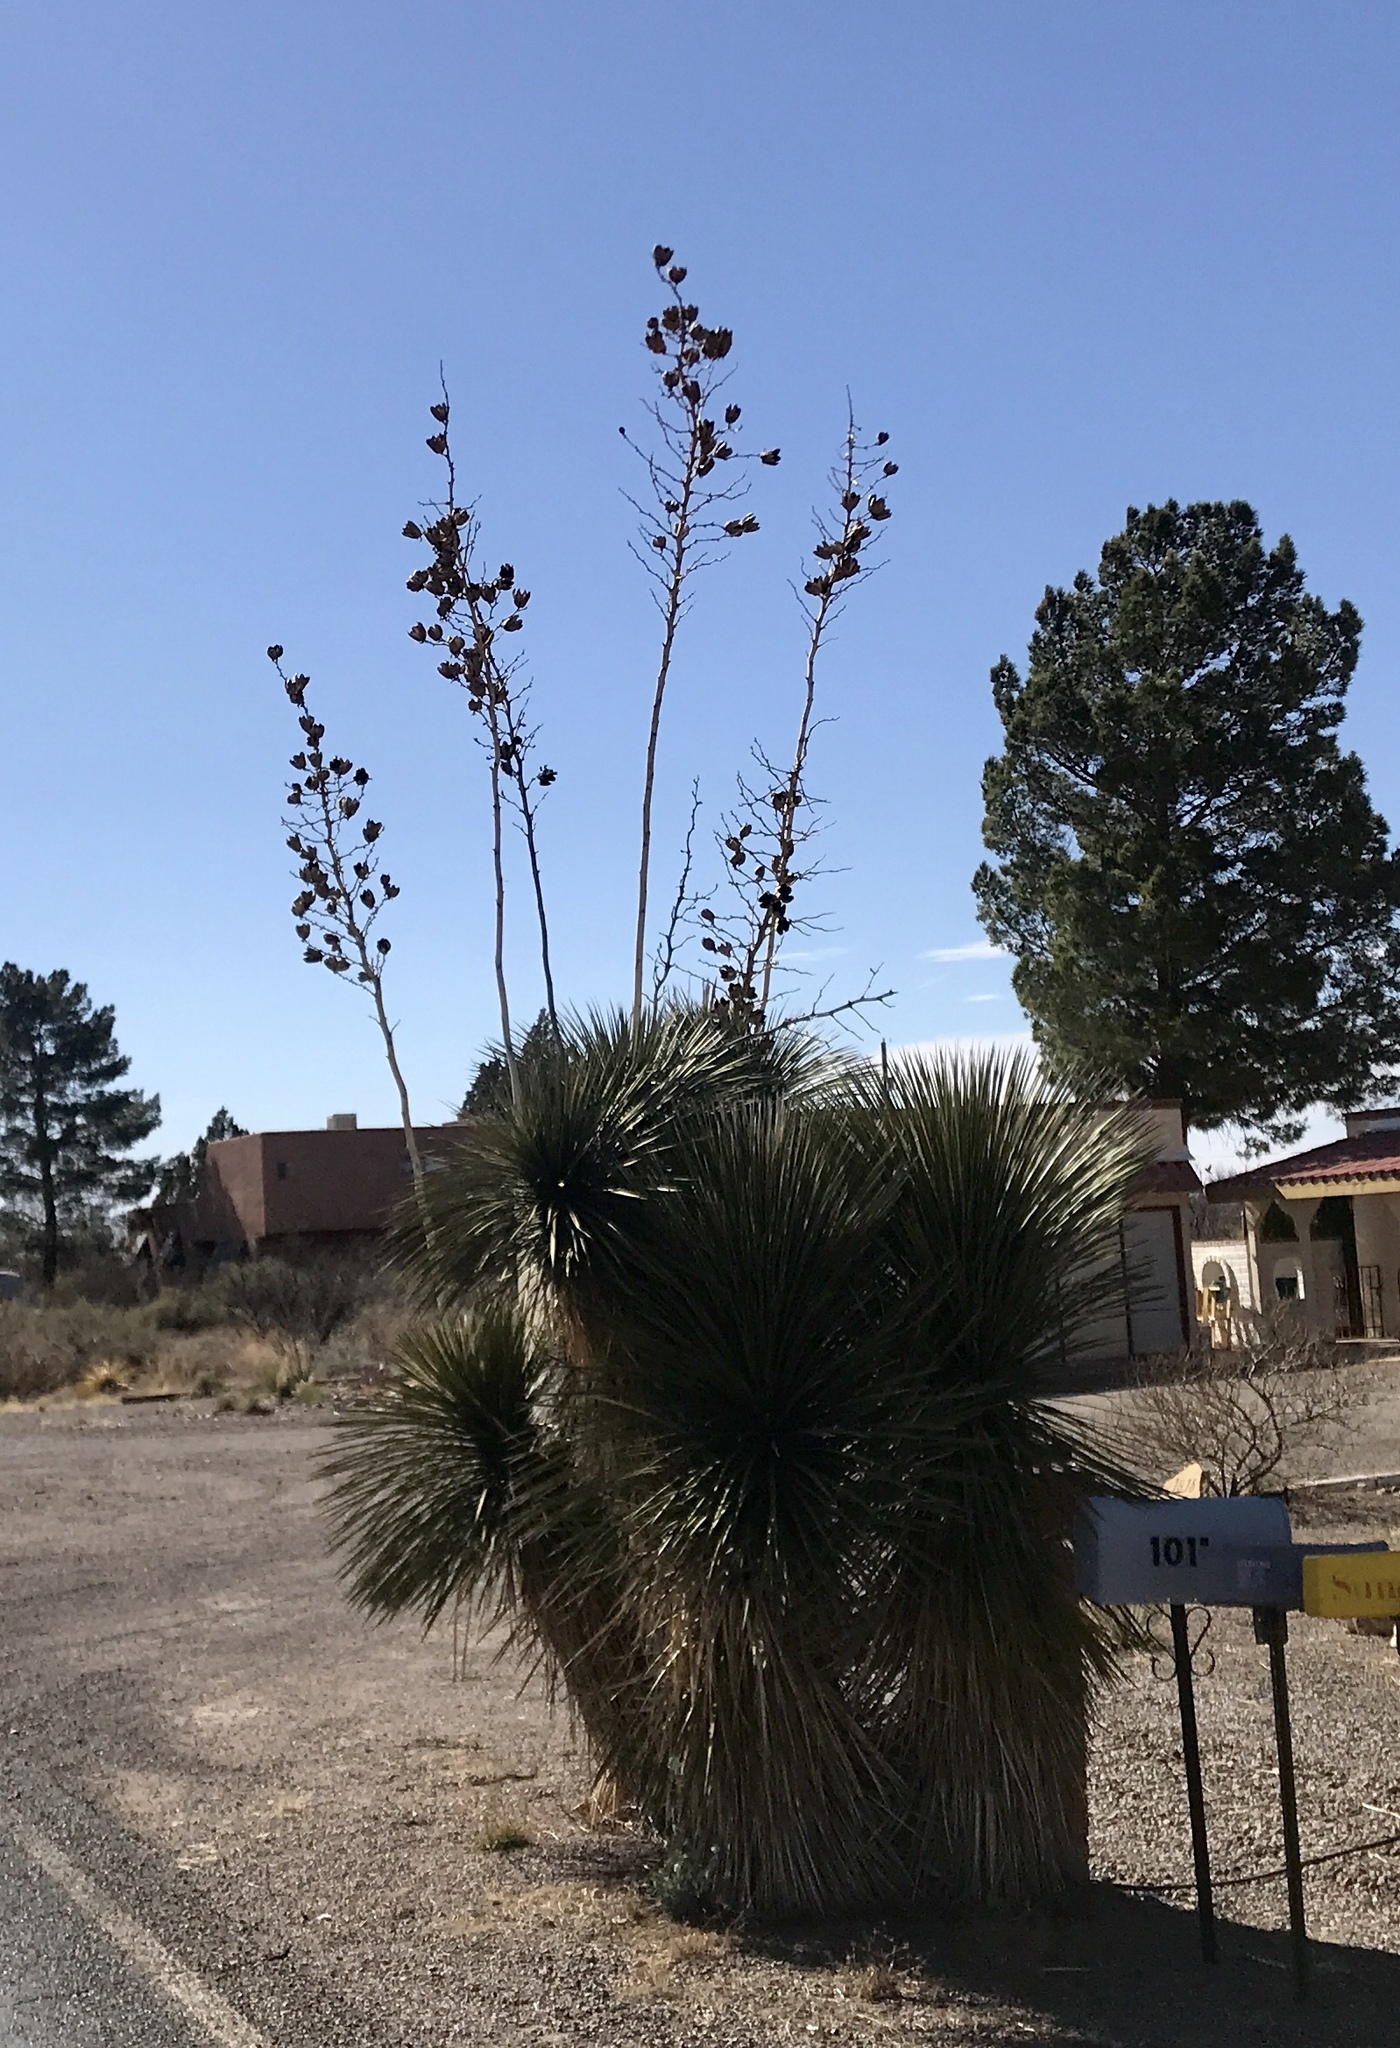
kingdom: Plantae
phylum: Tracheophyta
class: Liliopsida
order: Asparagales
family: Asparagaceae
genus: Yucca
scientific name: Yucca elata
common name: Palmella
